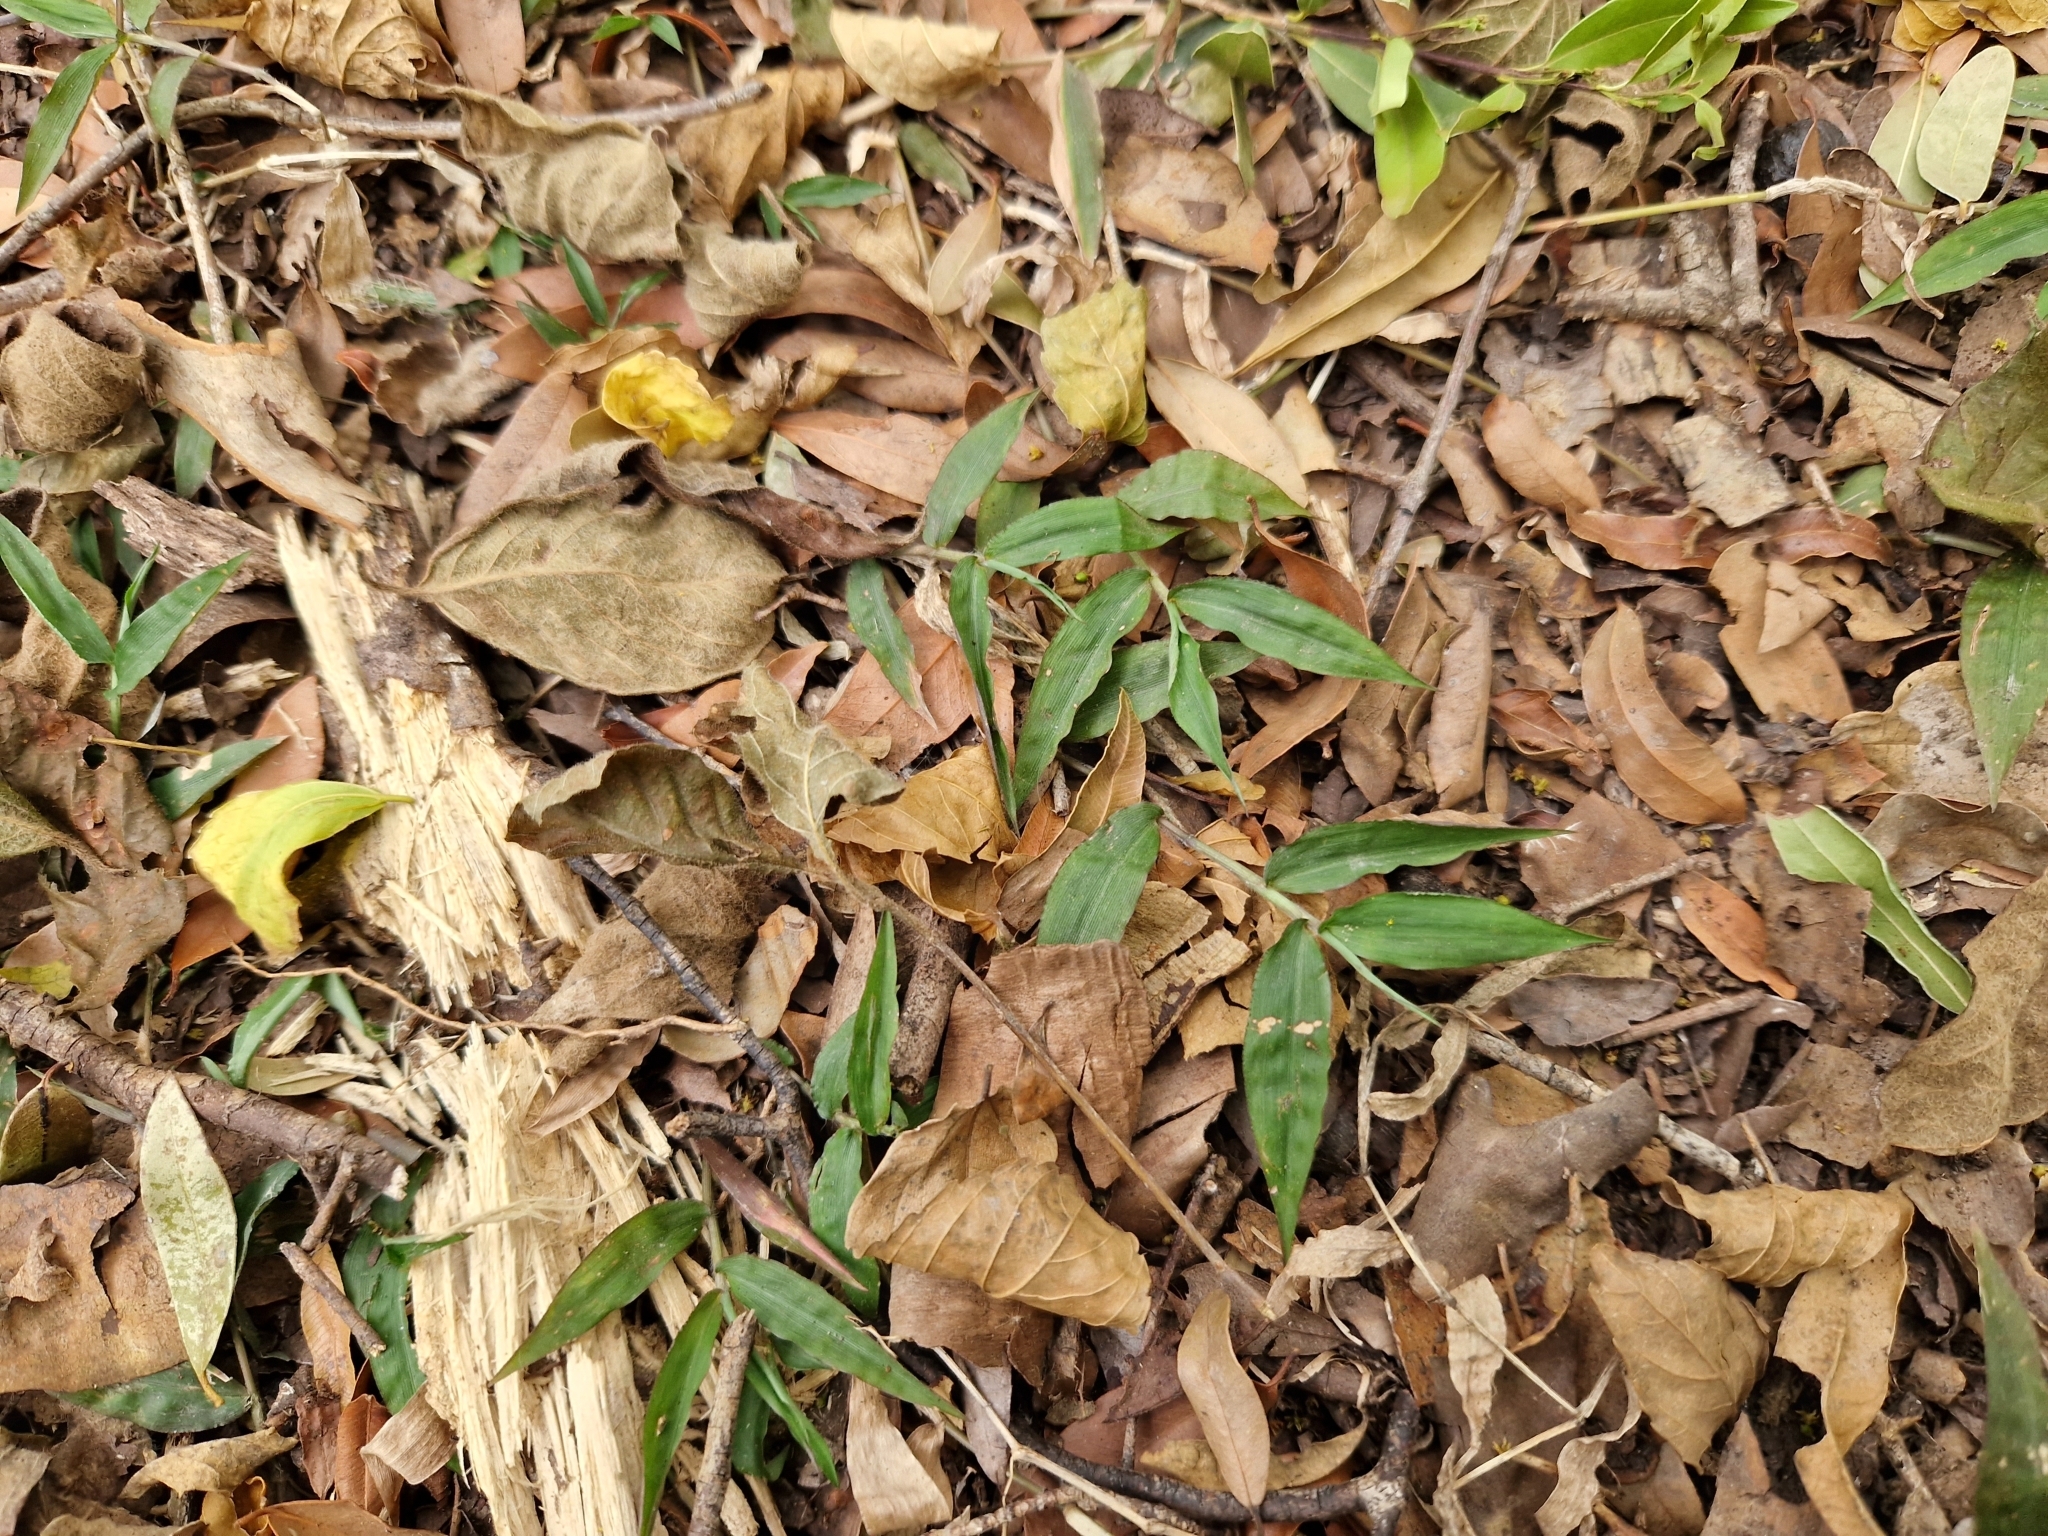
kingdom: Plantae
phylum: Tracheophyta
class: Liliopsida
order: Poales
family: Poaceae
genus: Oplismenus
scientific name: Oplismenus hirtellus
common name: Basketgrass
